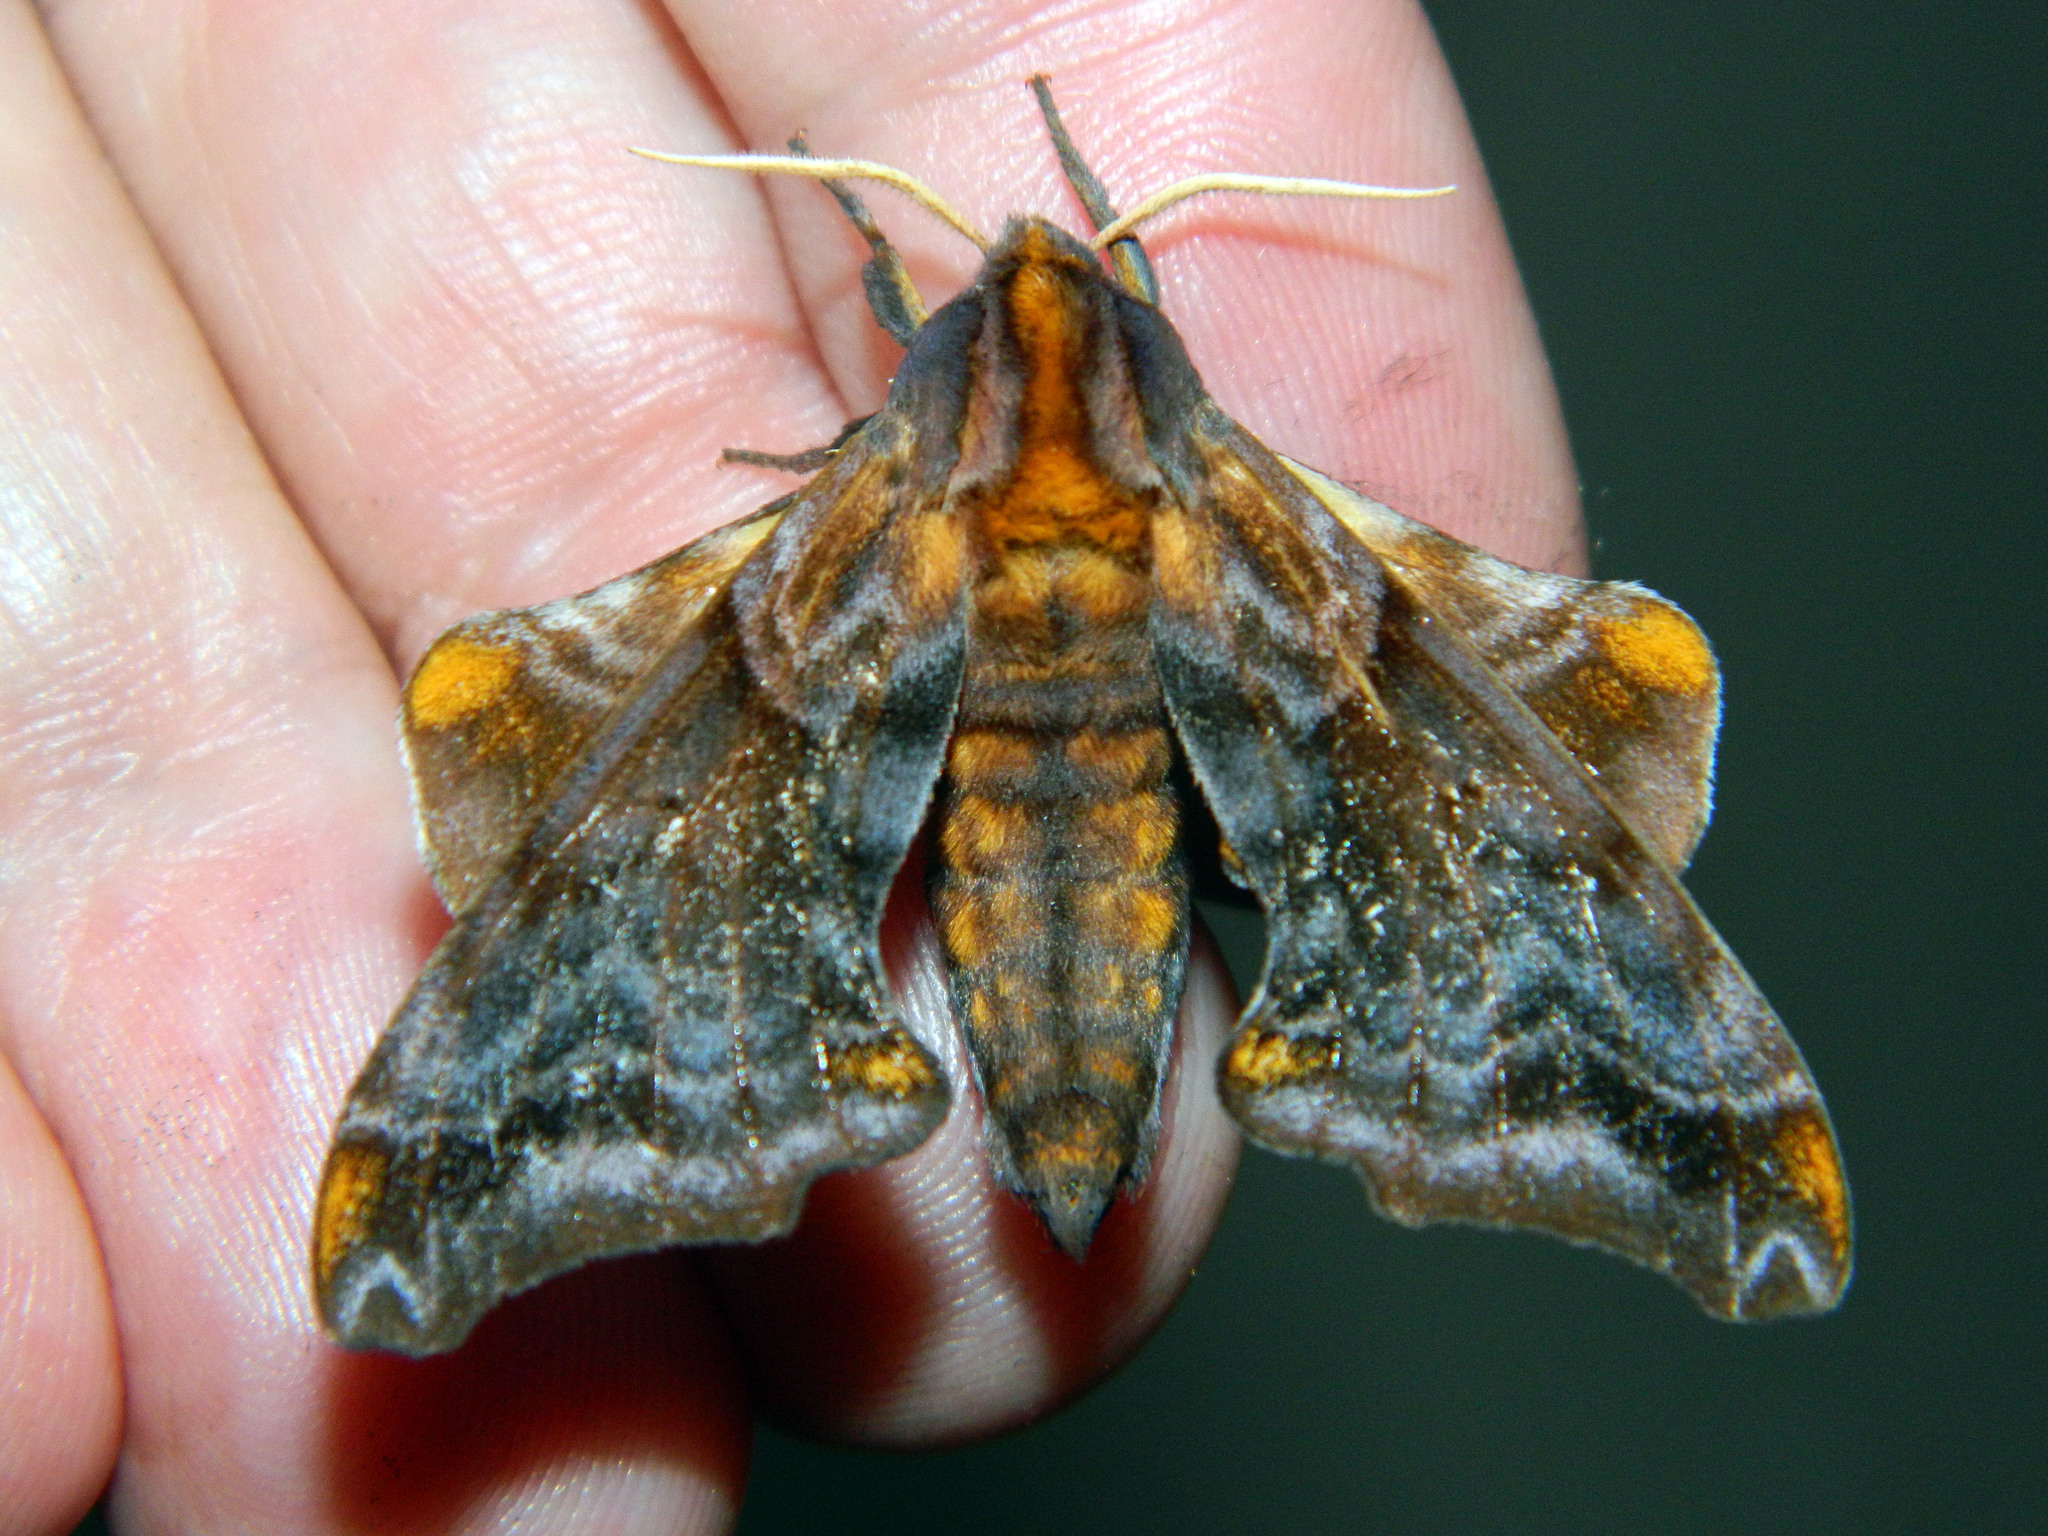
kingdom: Animalia
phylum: Arthropoda
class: Insecta
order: Lepidoptera
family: Sphingidae
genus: Paonias
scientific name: Paonias myops
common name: Small-eyed sphinx
